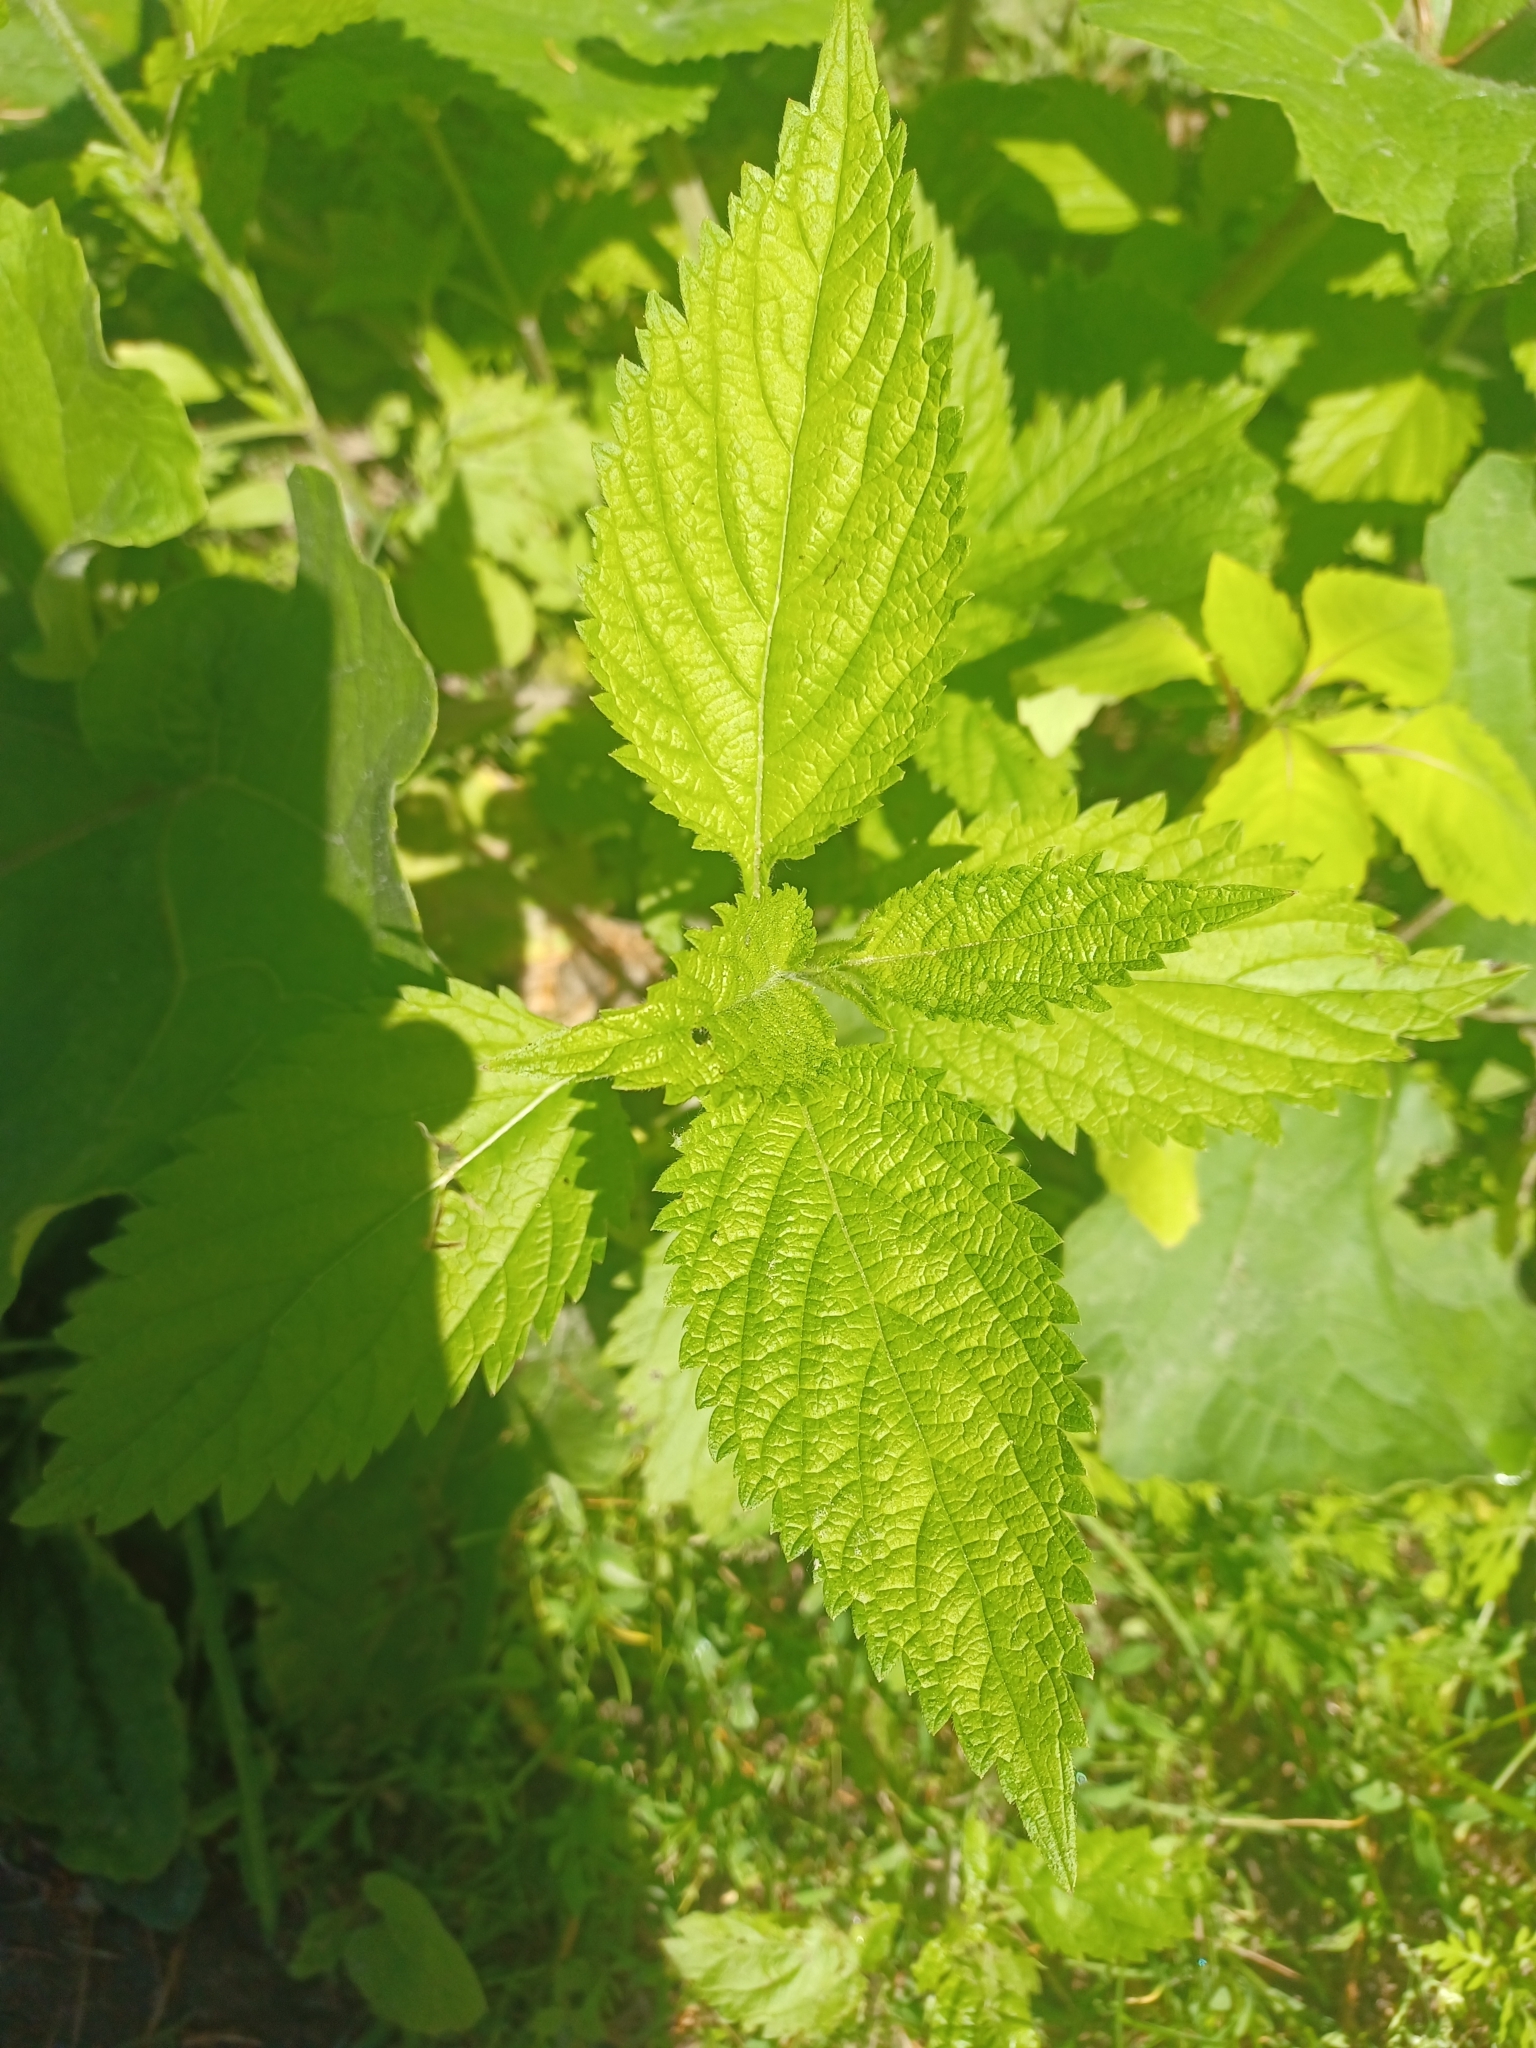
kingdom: Plantae
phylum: Tracheophyta
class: Magnoliopsida
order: Rosales
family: Urticaceae
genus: Urtica
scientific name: Urtica dioica
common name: Common nettle
